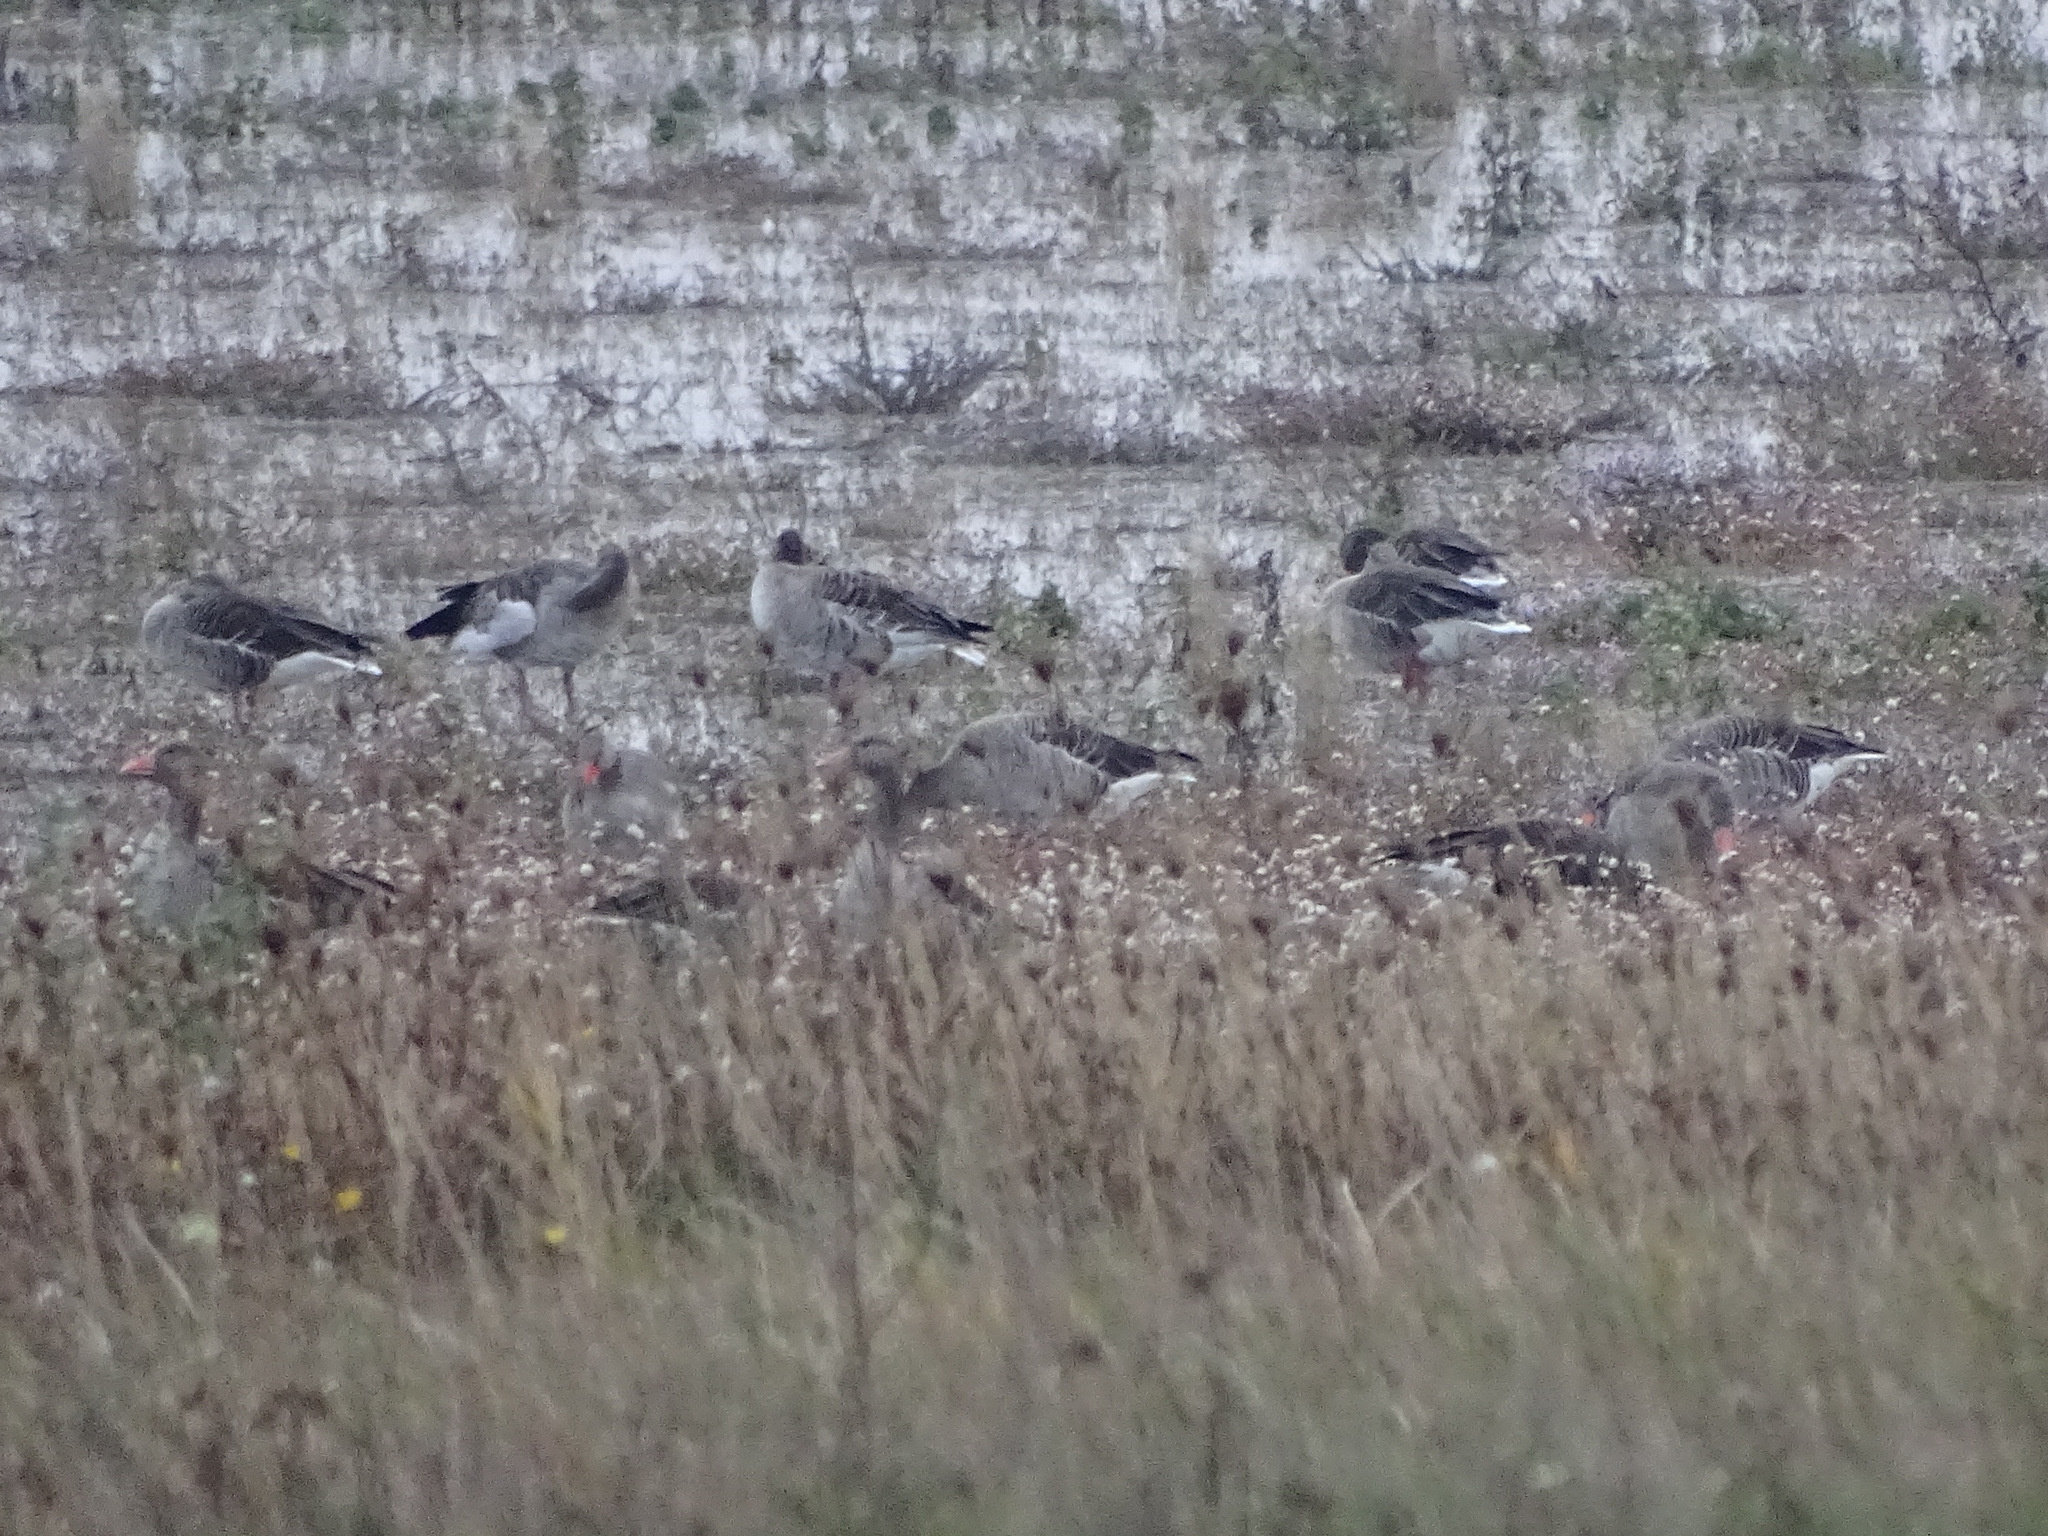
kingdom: Animalia
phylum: Chordata
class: Aves
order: Anseriformes
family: Anatidae
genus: Anser
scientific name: Anser anser
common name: Greylag goose
